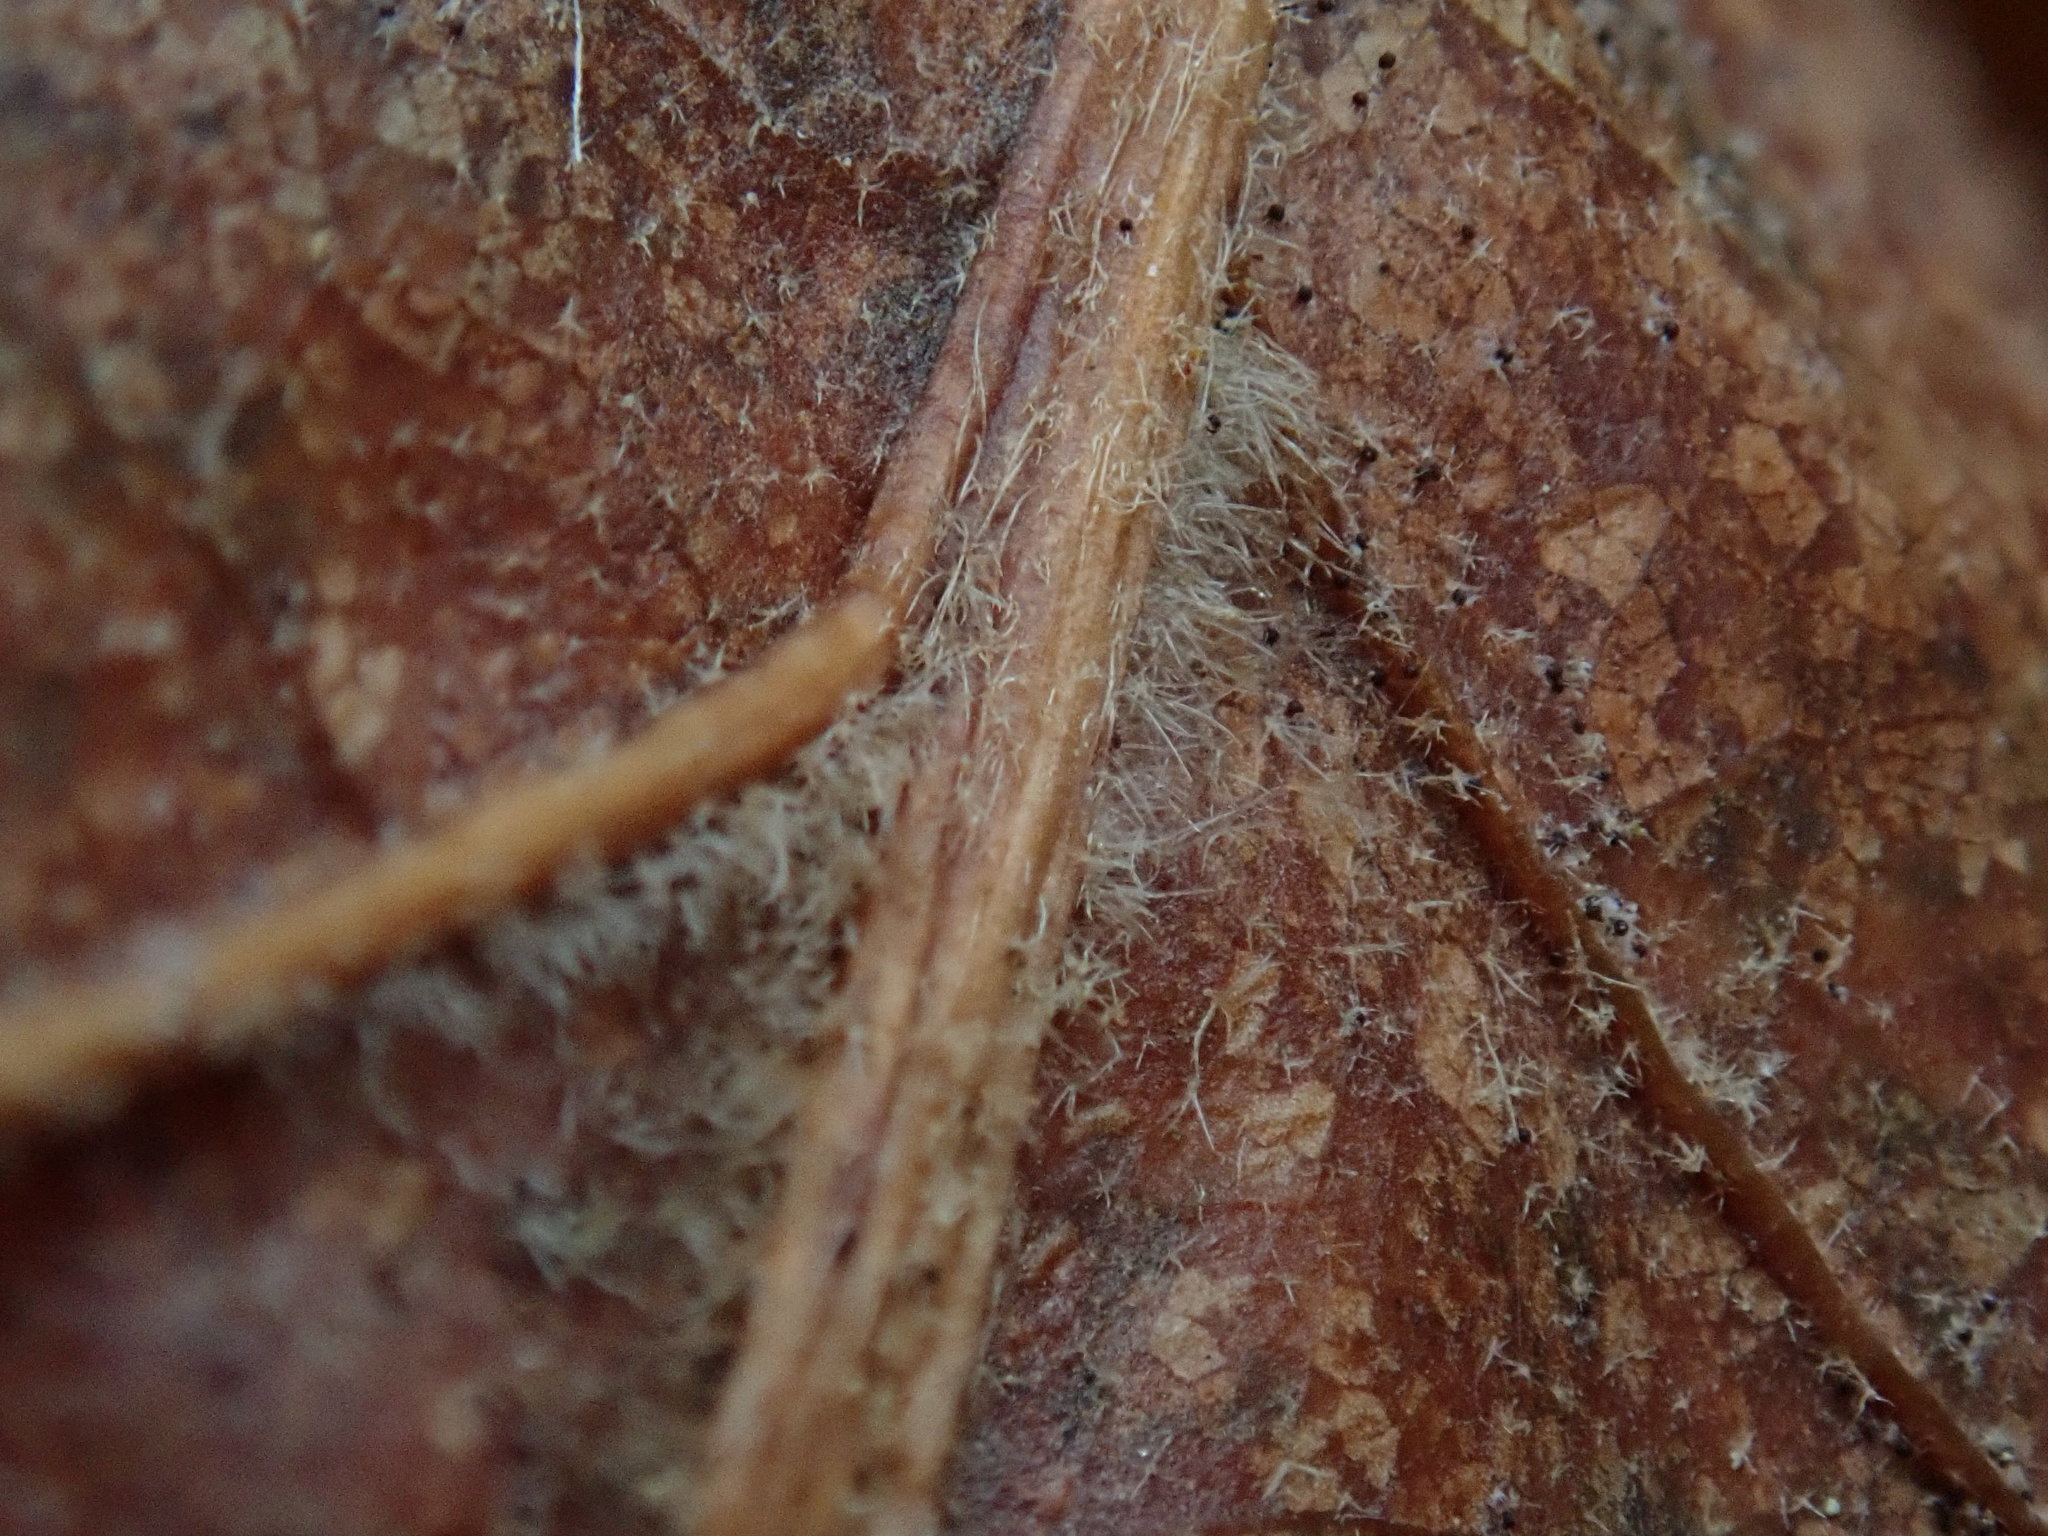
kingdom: Plantae
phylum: Tracheophyta
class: Magnoliopsida
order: Fagales
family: Fagaceae
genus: Quercus
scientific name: Quercus velutina
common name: Black oak
